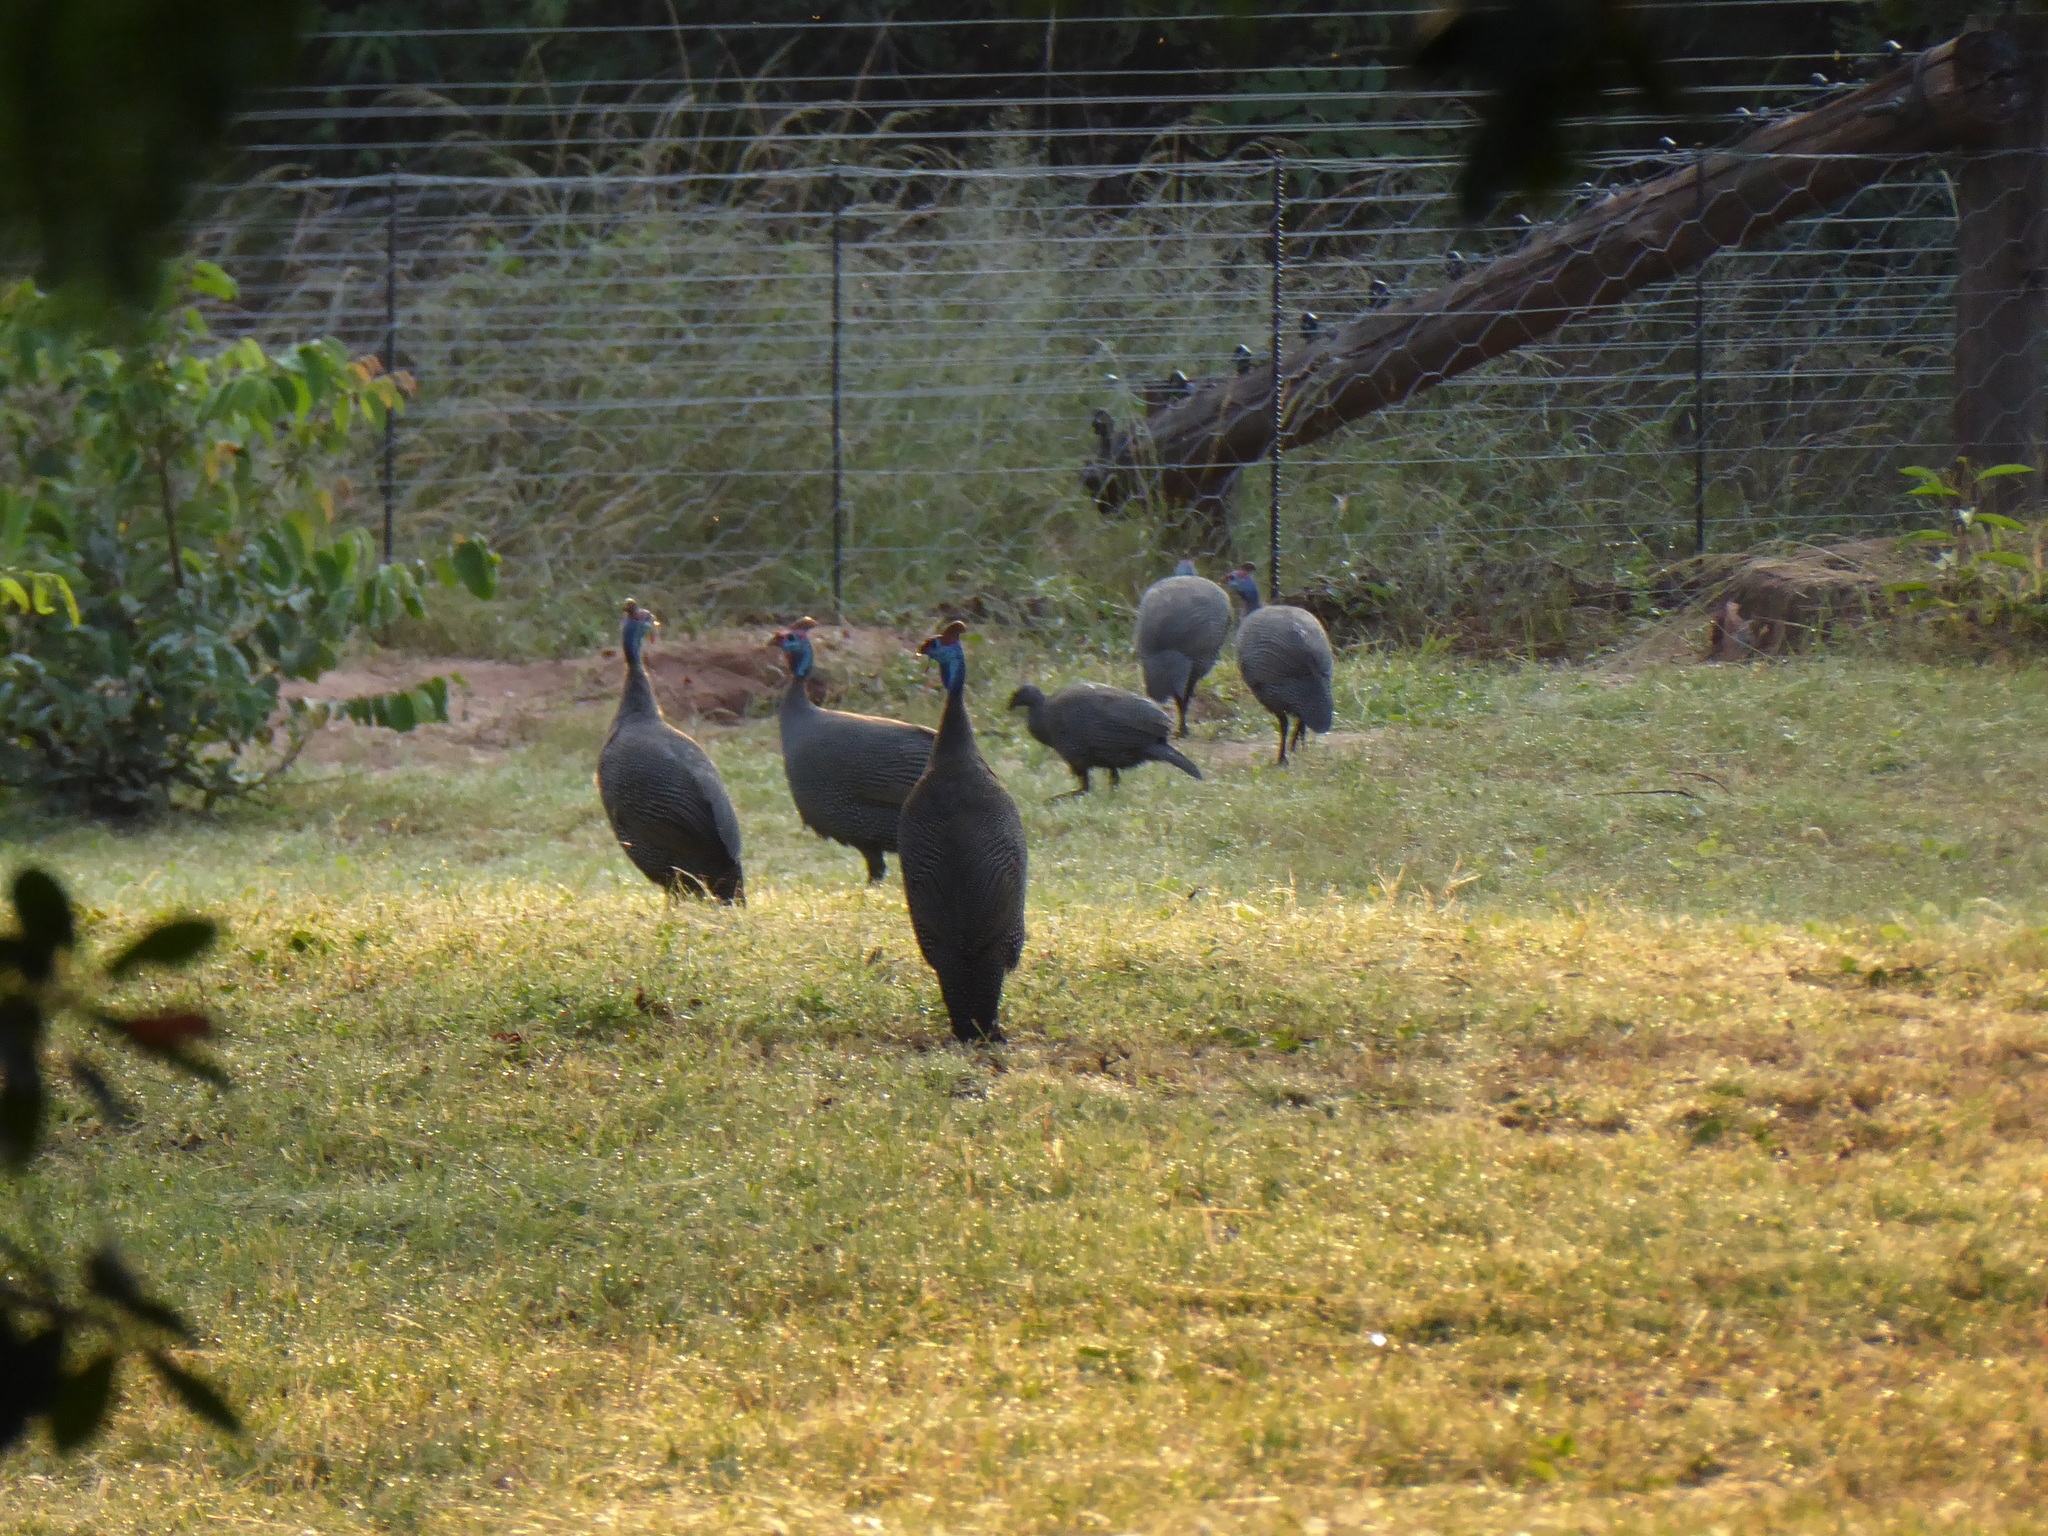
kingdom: Animalia
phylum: Chordata
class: Aves
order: Galliformes
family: Numididae
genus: Numida
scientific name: Numida meleagris
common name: Helmeted guineafowl
